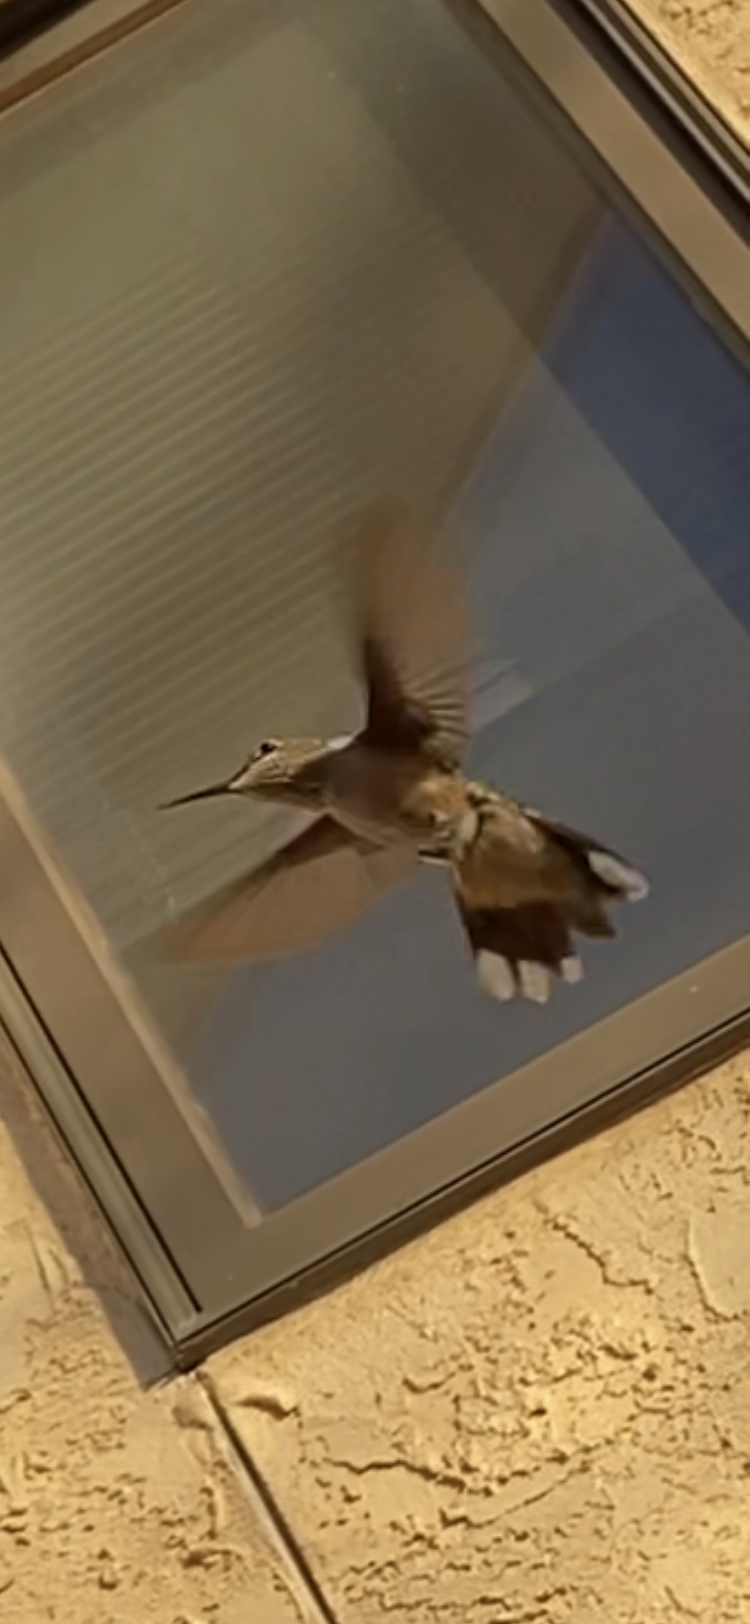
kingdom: Animalia
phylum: Chordata
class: Aves
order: Apodiformes
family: Trochilidae
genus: Selasphorus
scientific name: Selasphorus rufus
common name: Rufous hummingbird
